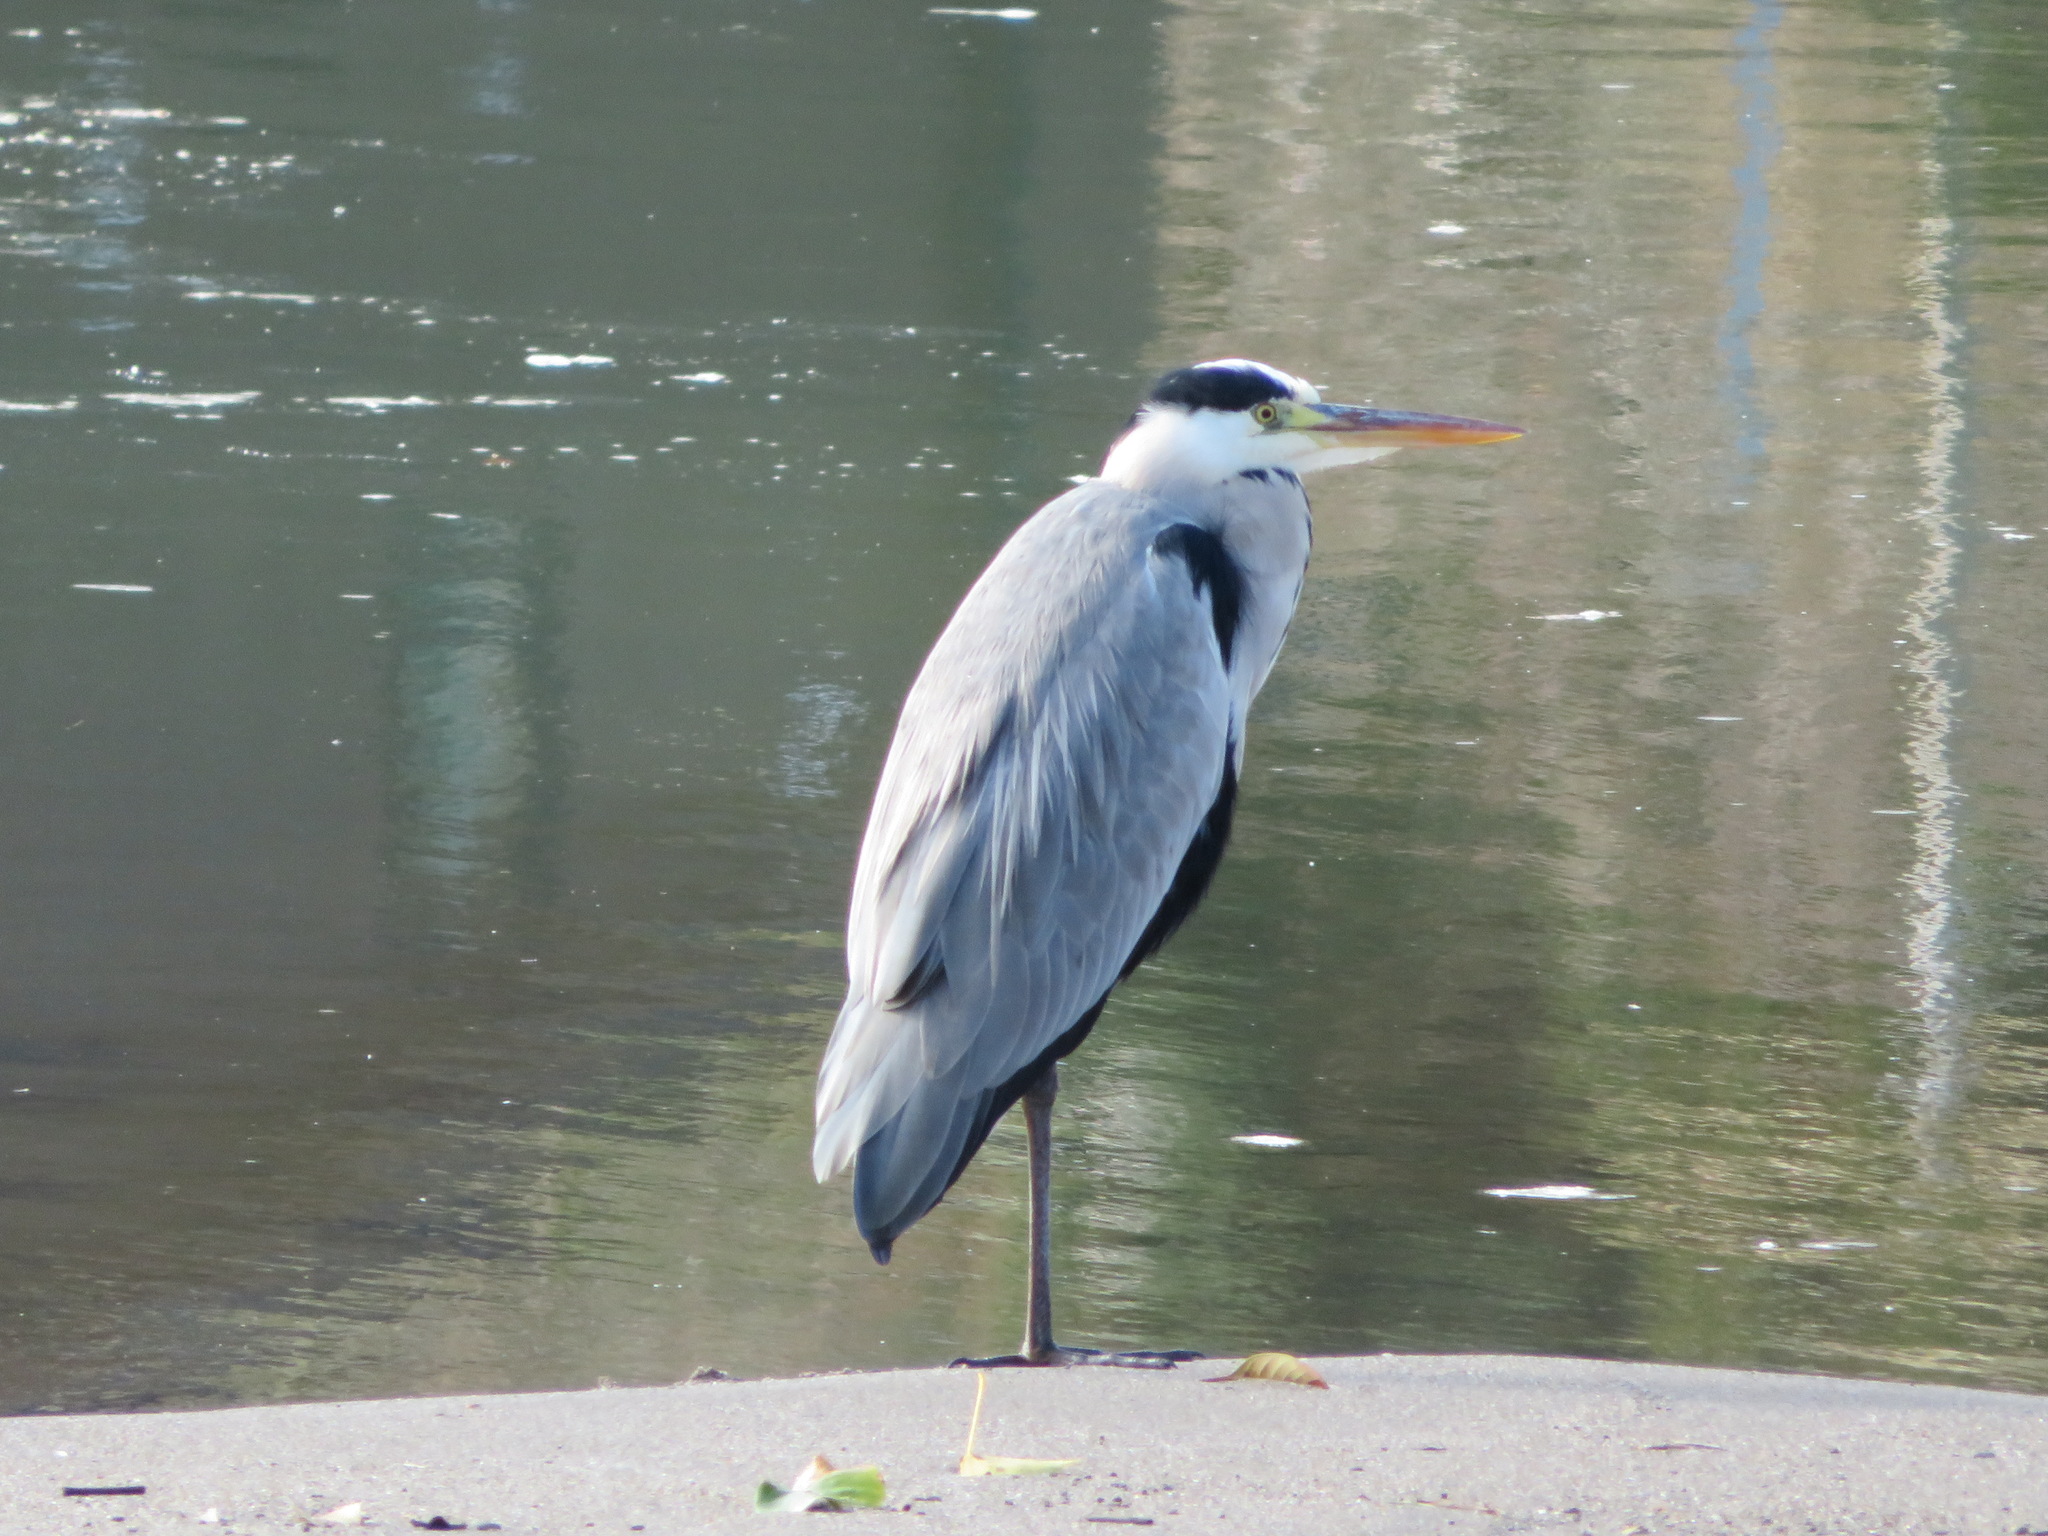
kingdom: Animalia
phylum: Chordata
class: Aves
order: Pelecaniformes
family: Ardeidae
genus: Ardea
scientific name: Ardea cinerea
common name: Grey heron
